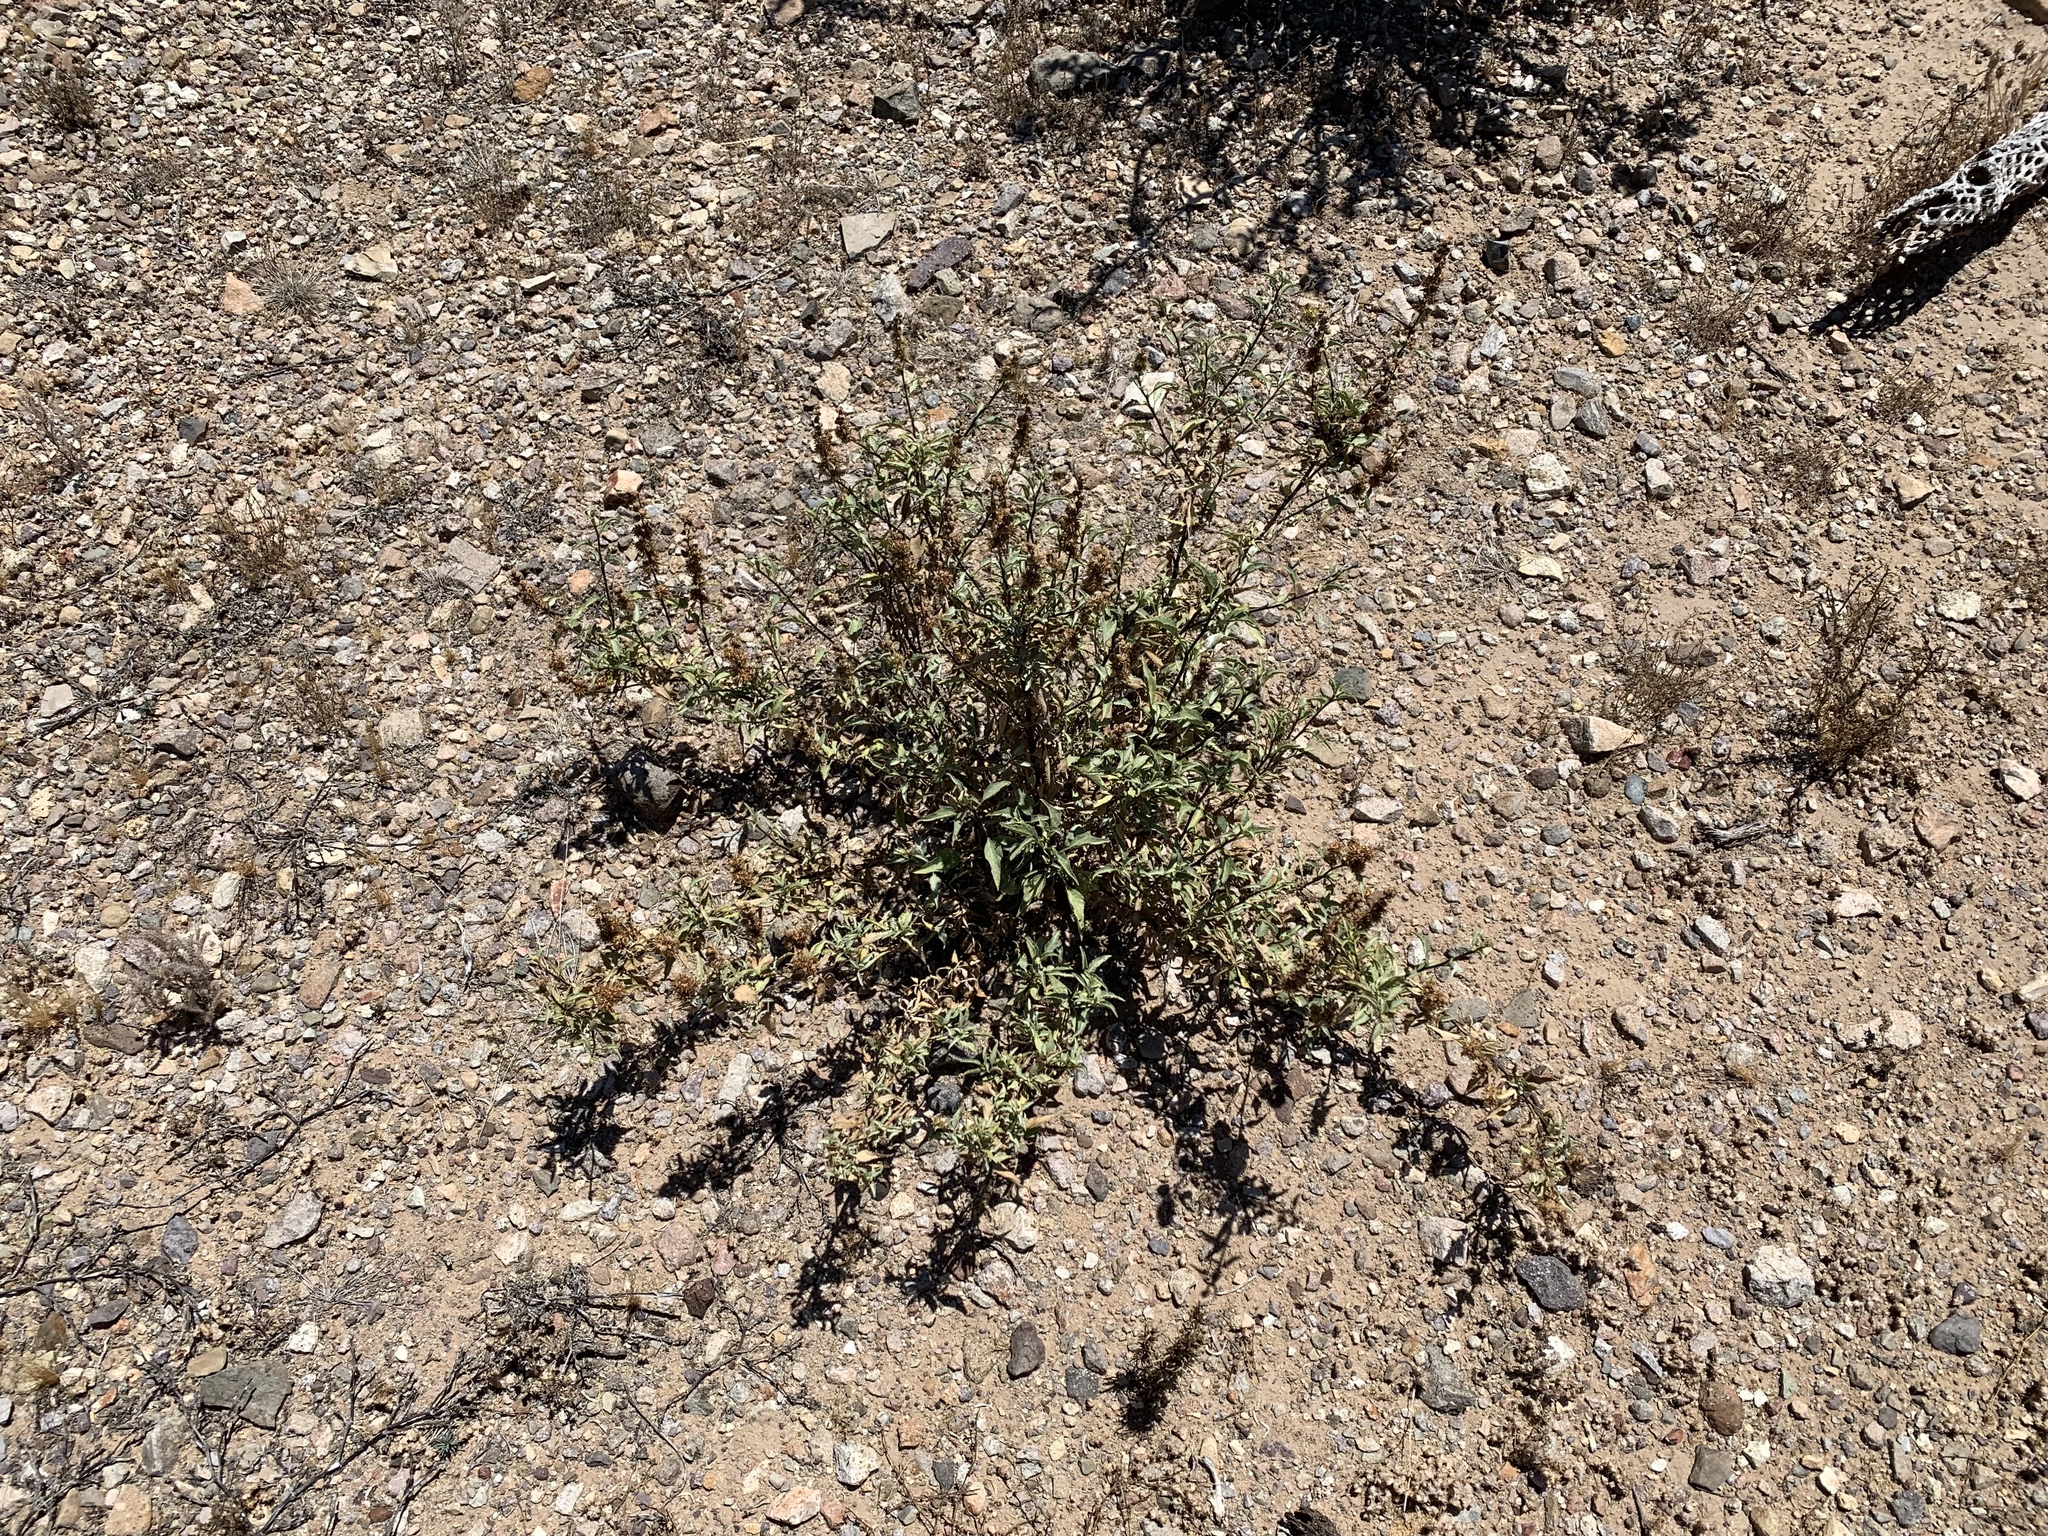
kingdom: Plantae
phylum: Tracheophyta
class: Magnoliopsida
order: Asterales
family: Asteraceae
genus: Ambrosia
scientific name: Ambrosia deltoidea
